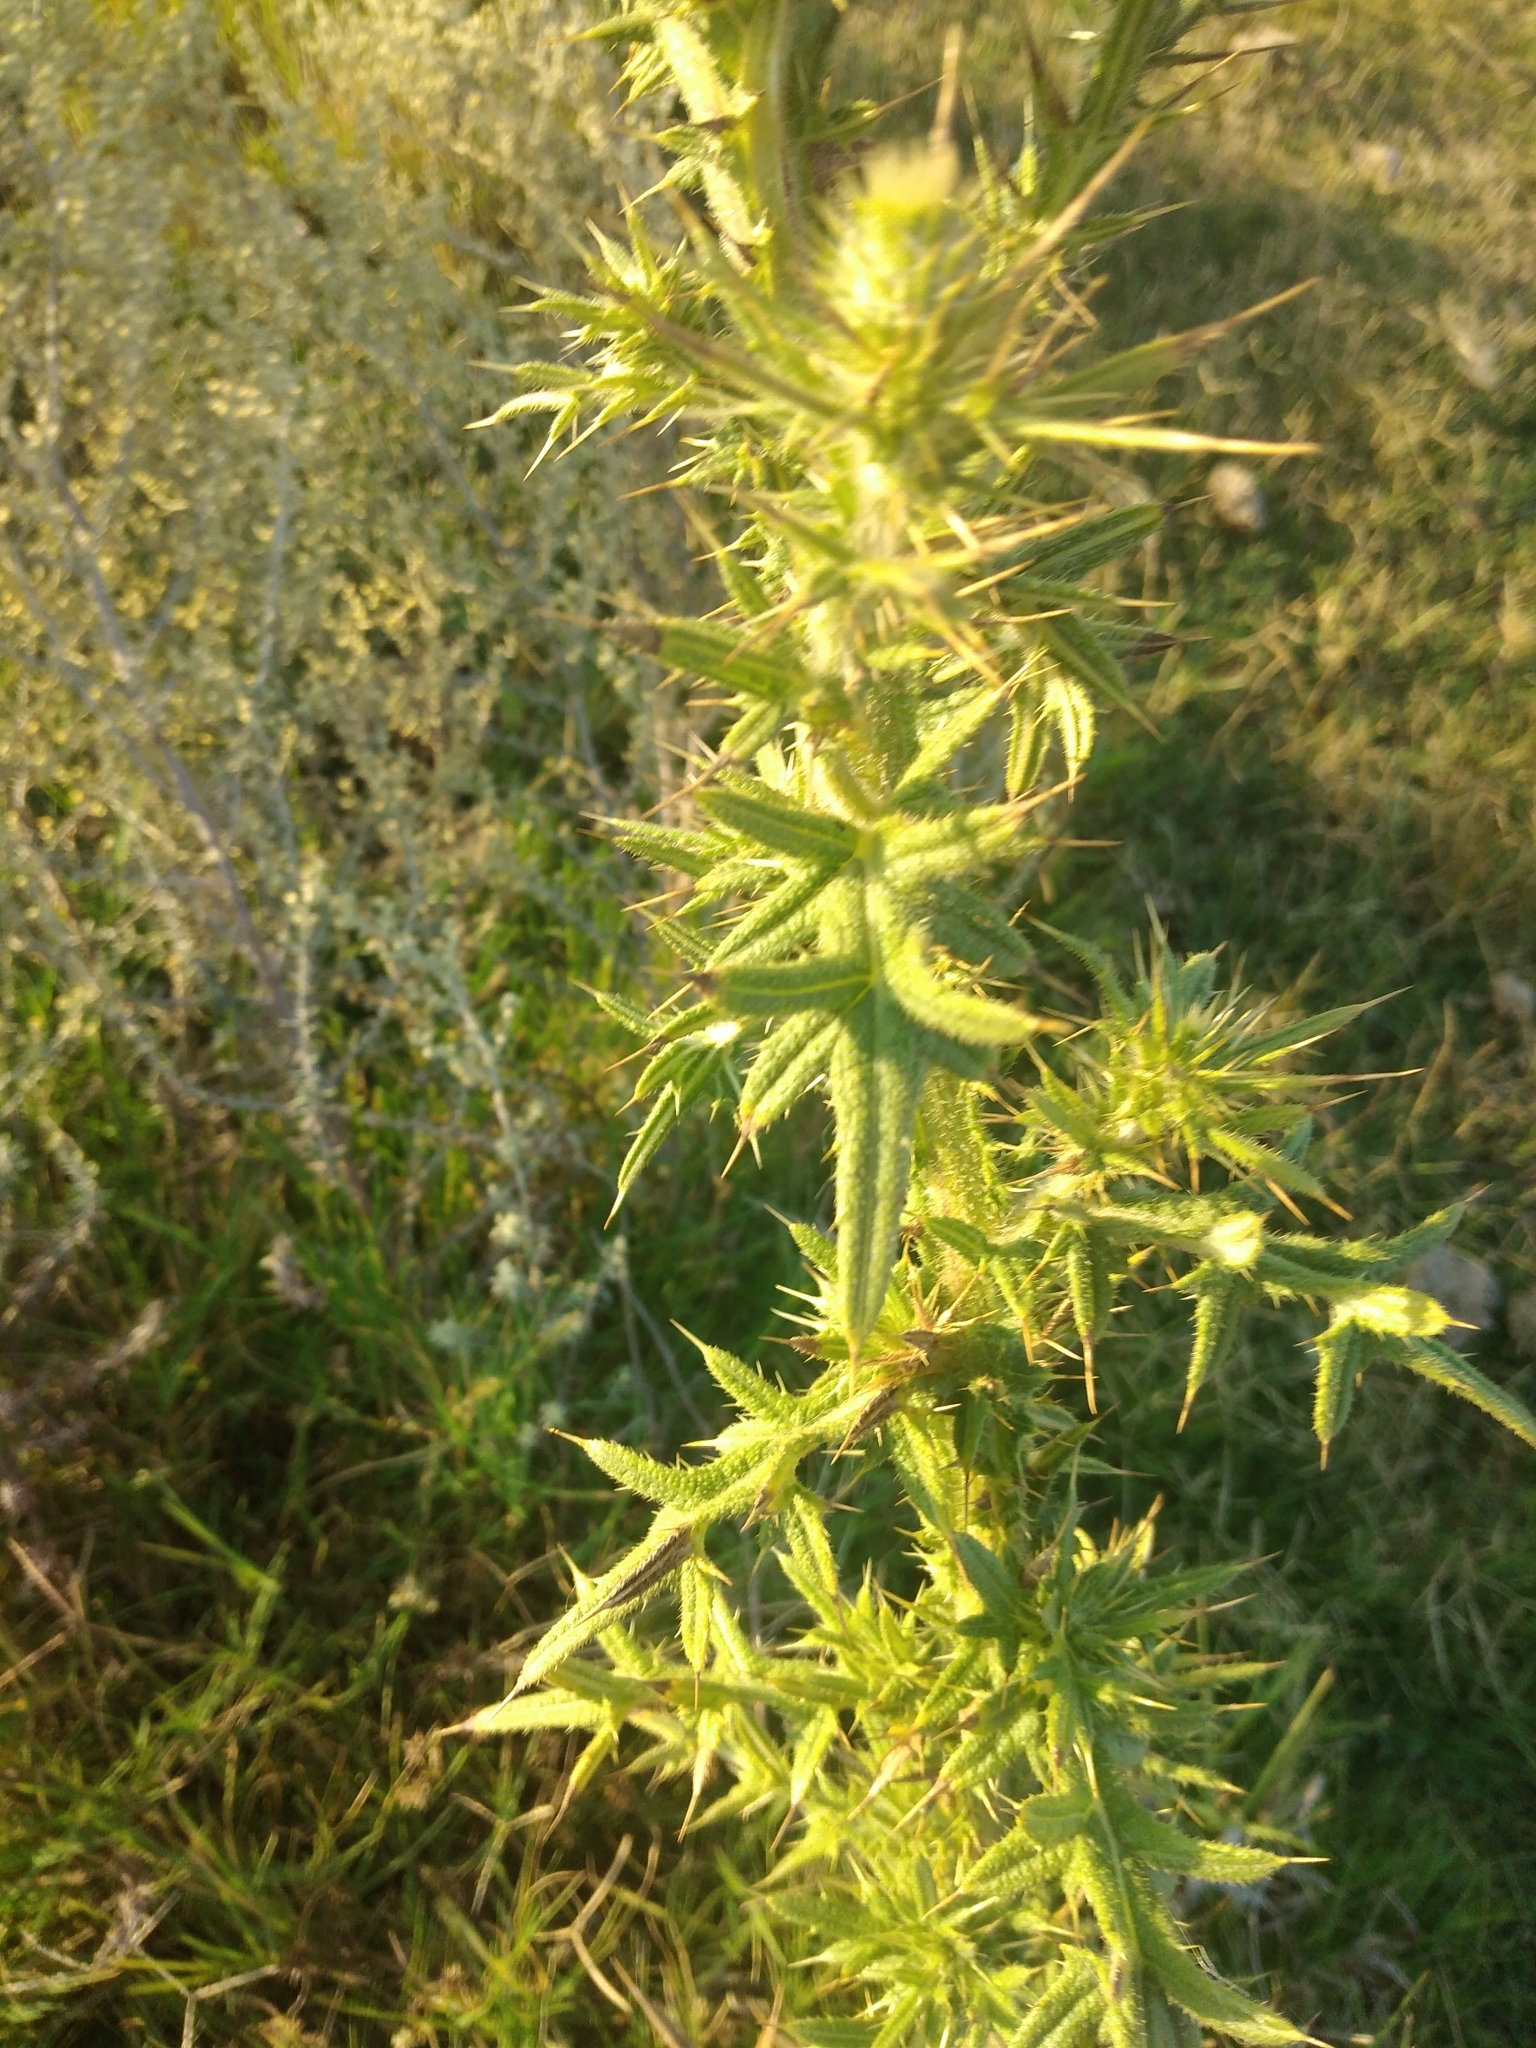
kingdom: Plantae
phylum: Tracheophyta
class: Magnoliopsida
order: Asterales
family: Asteraceae
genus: Cirsium
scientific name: Cirsium vulgare
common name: Bull thistle
